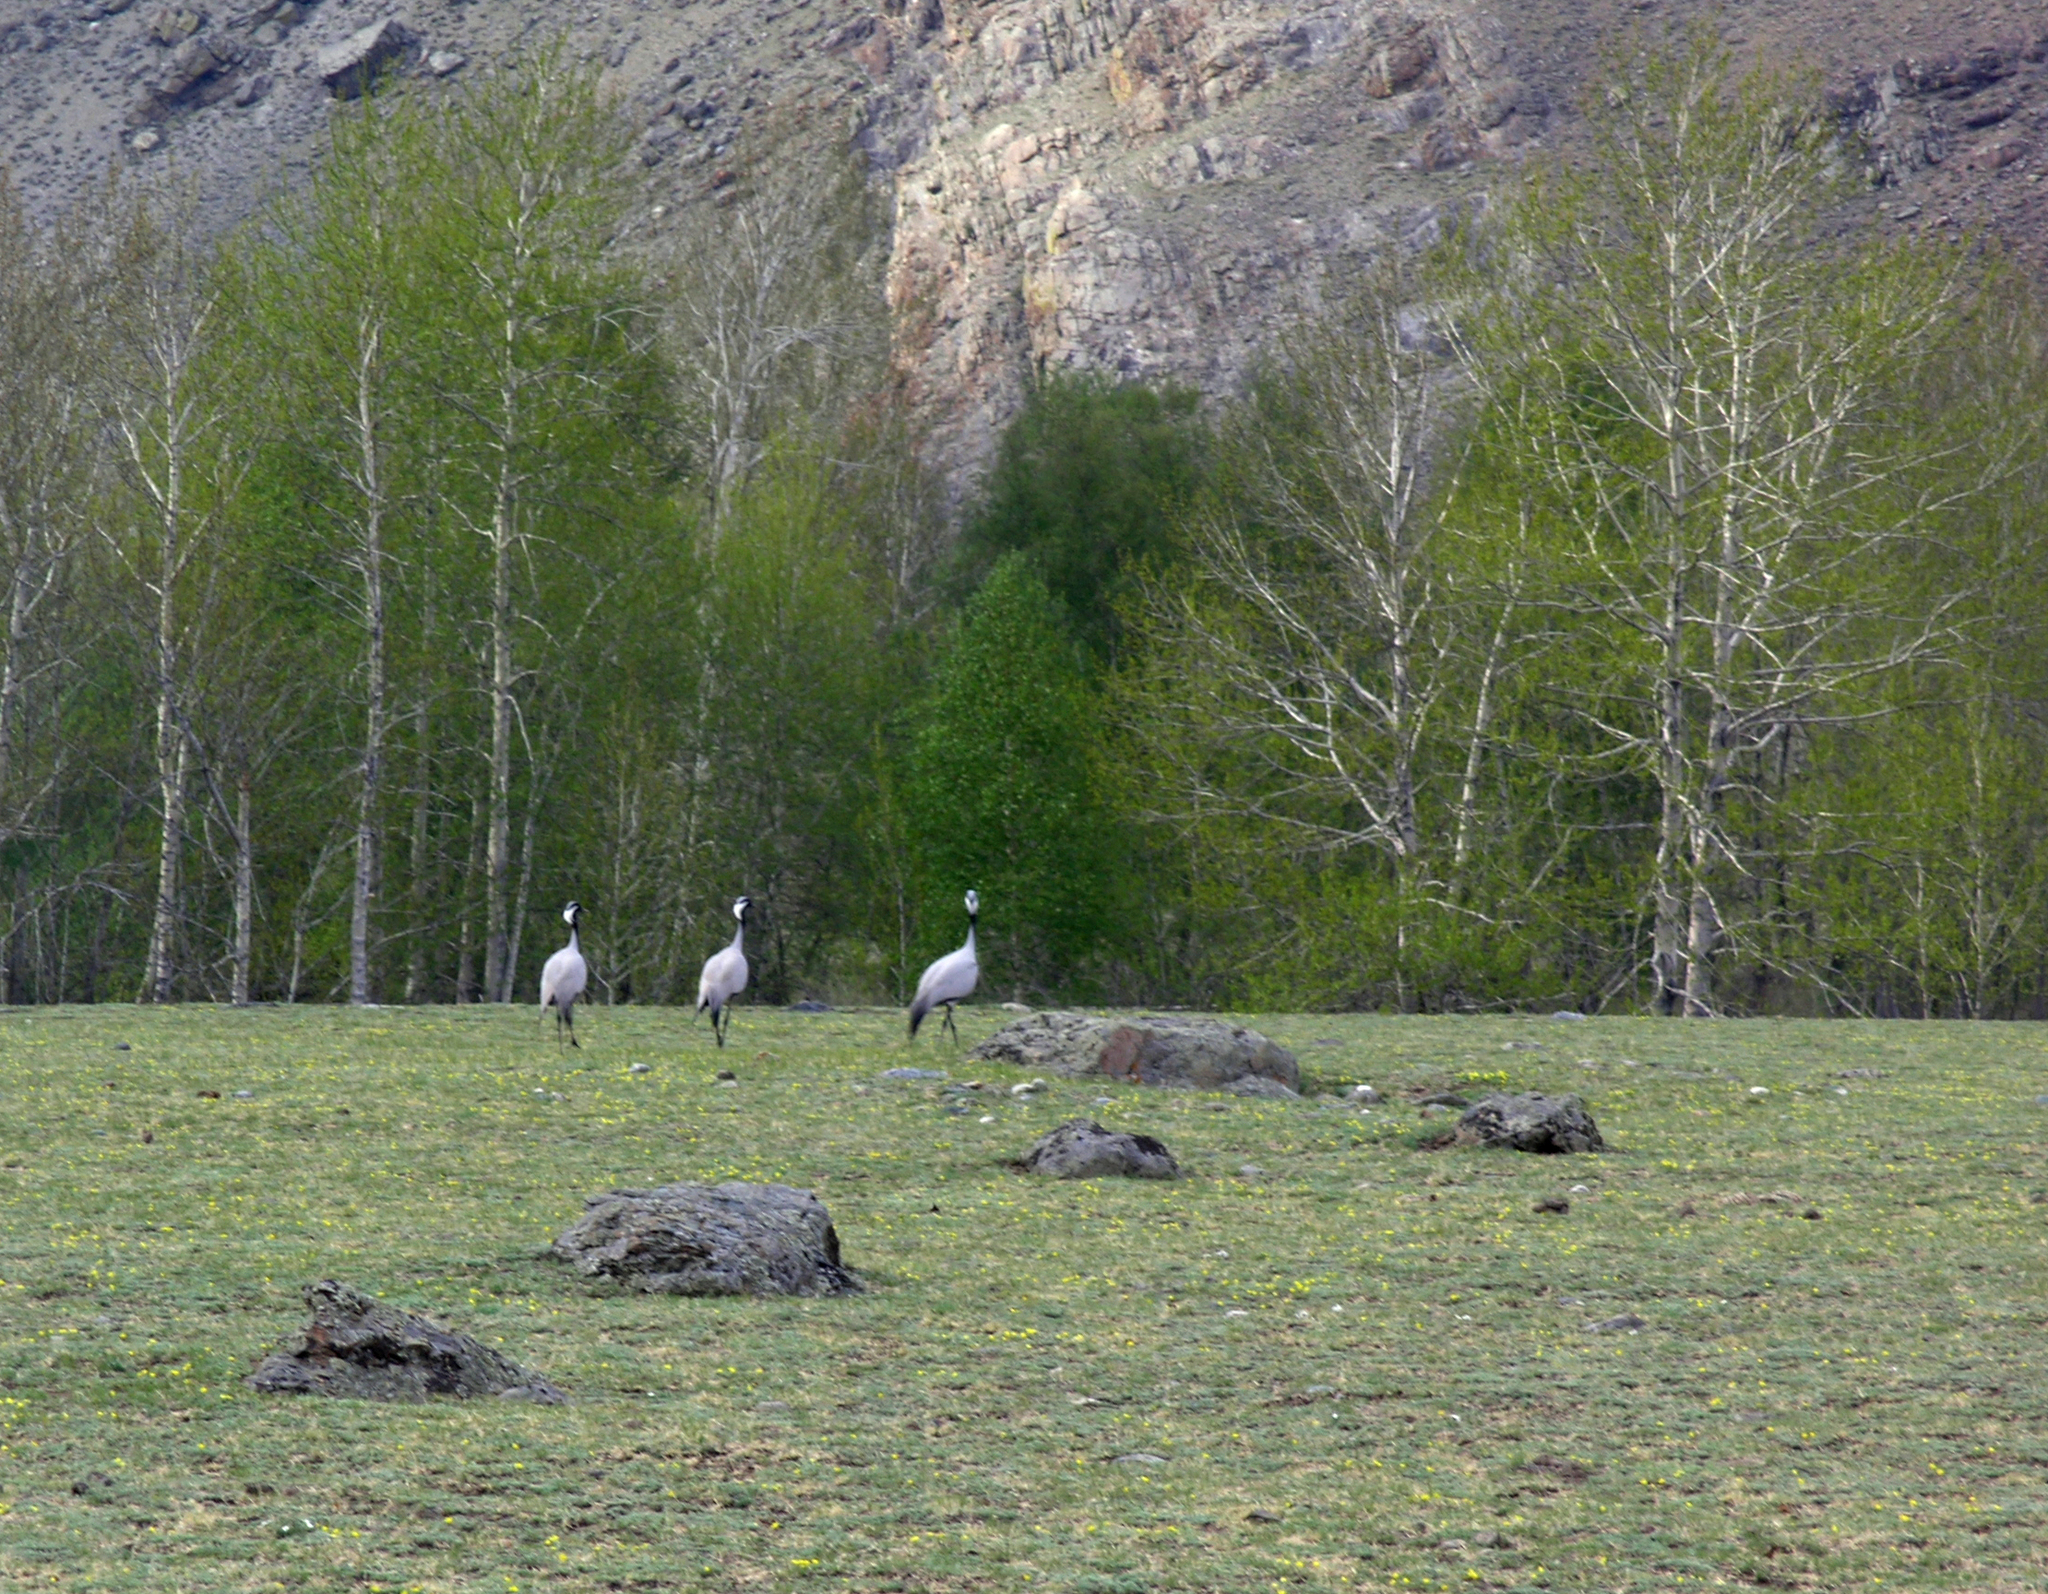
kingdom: Animalia
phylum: Chordata
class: Aves
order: Gruiformes
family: Gruidae
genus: Anthropoides
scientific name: Anthropoides virgo
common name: Demoiselle crane
